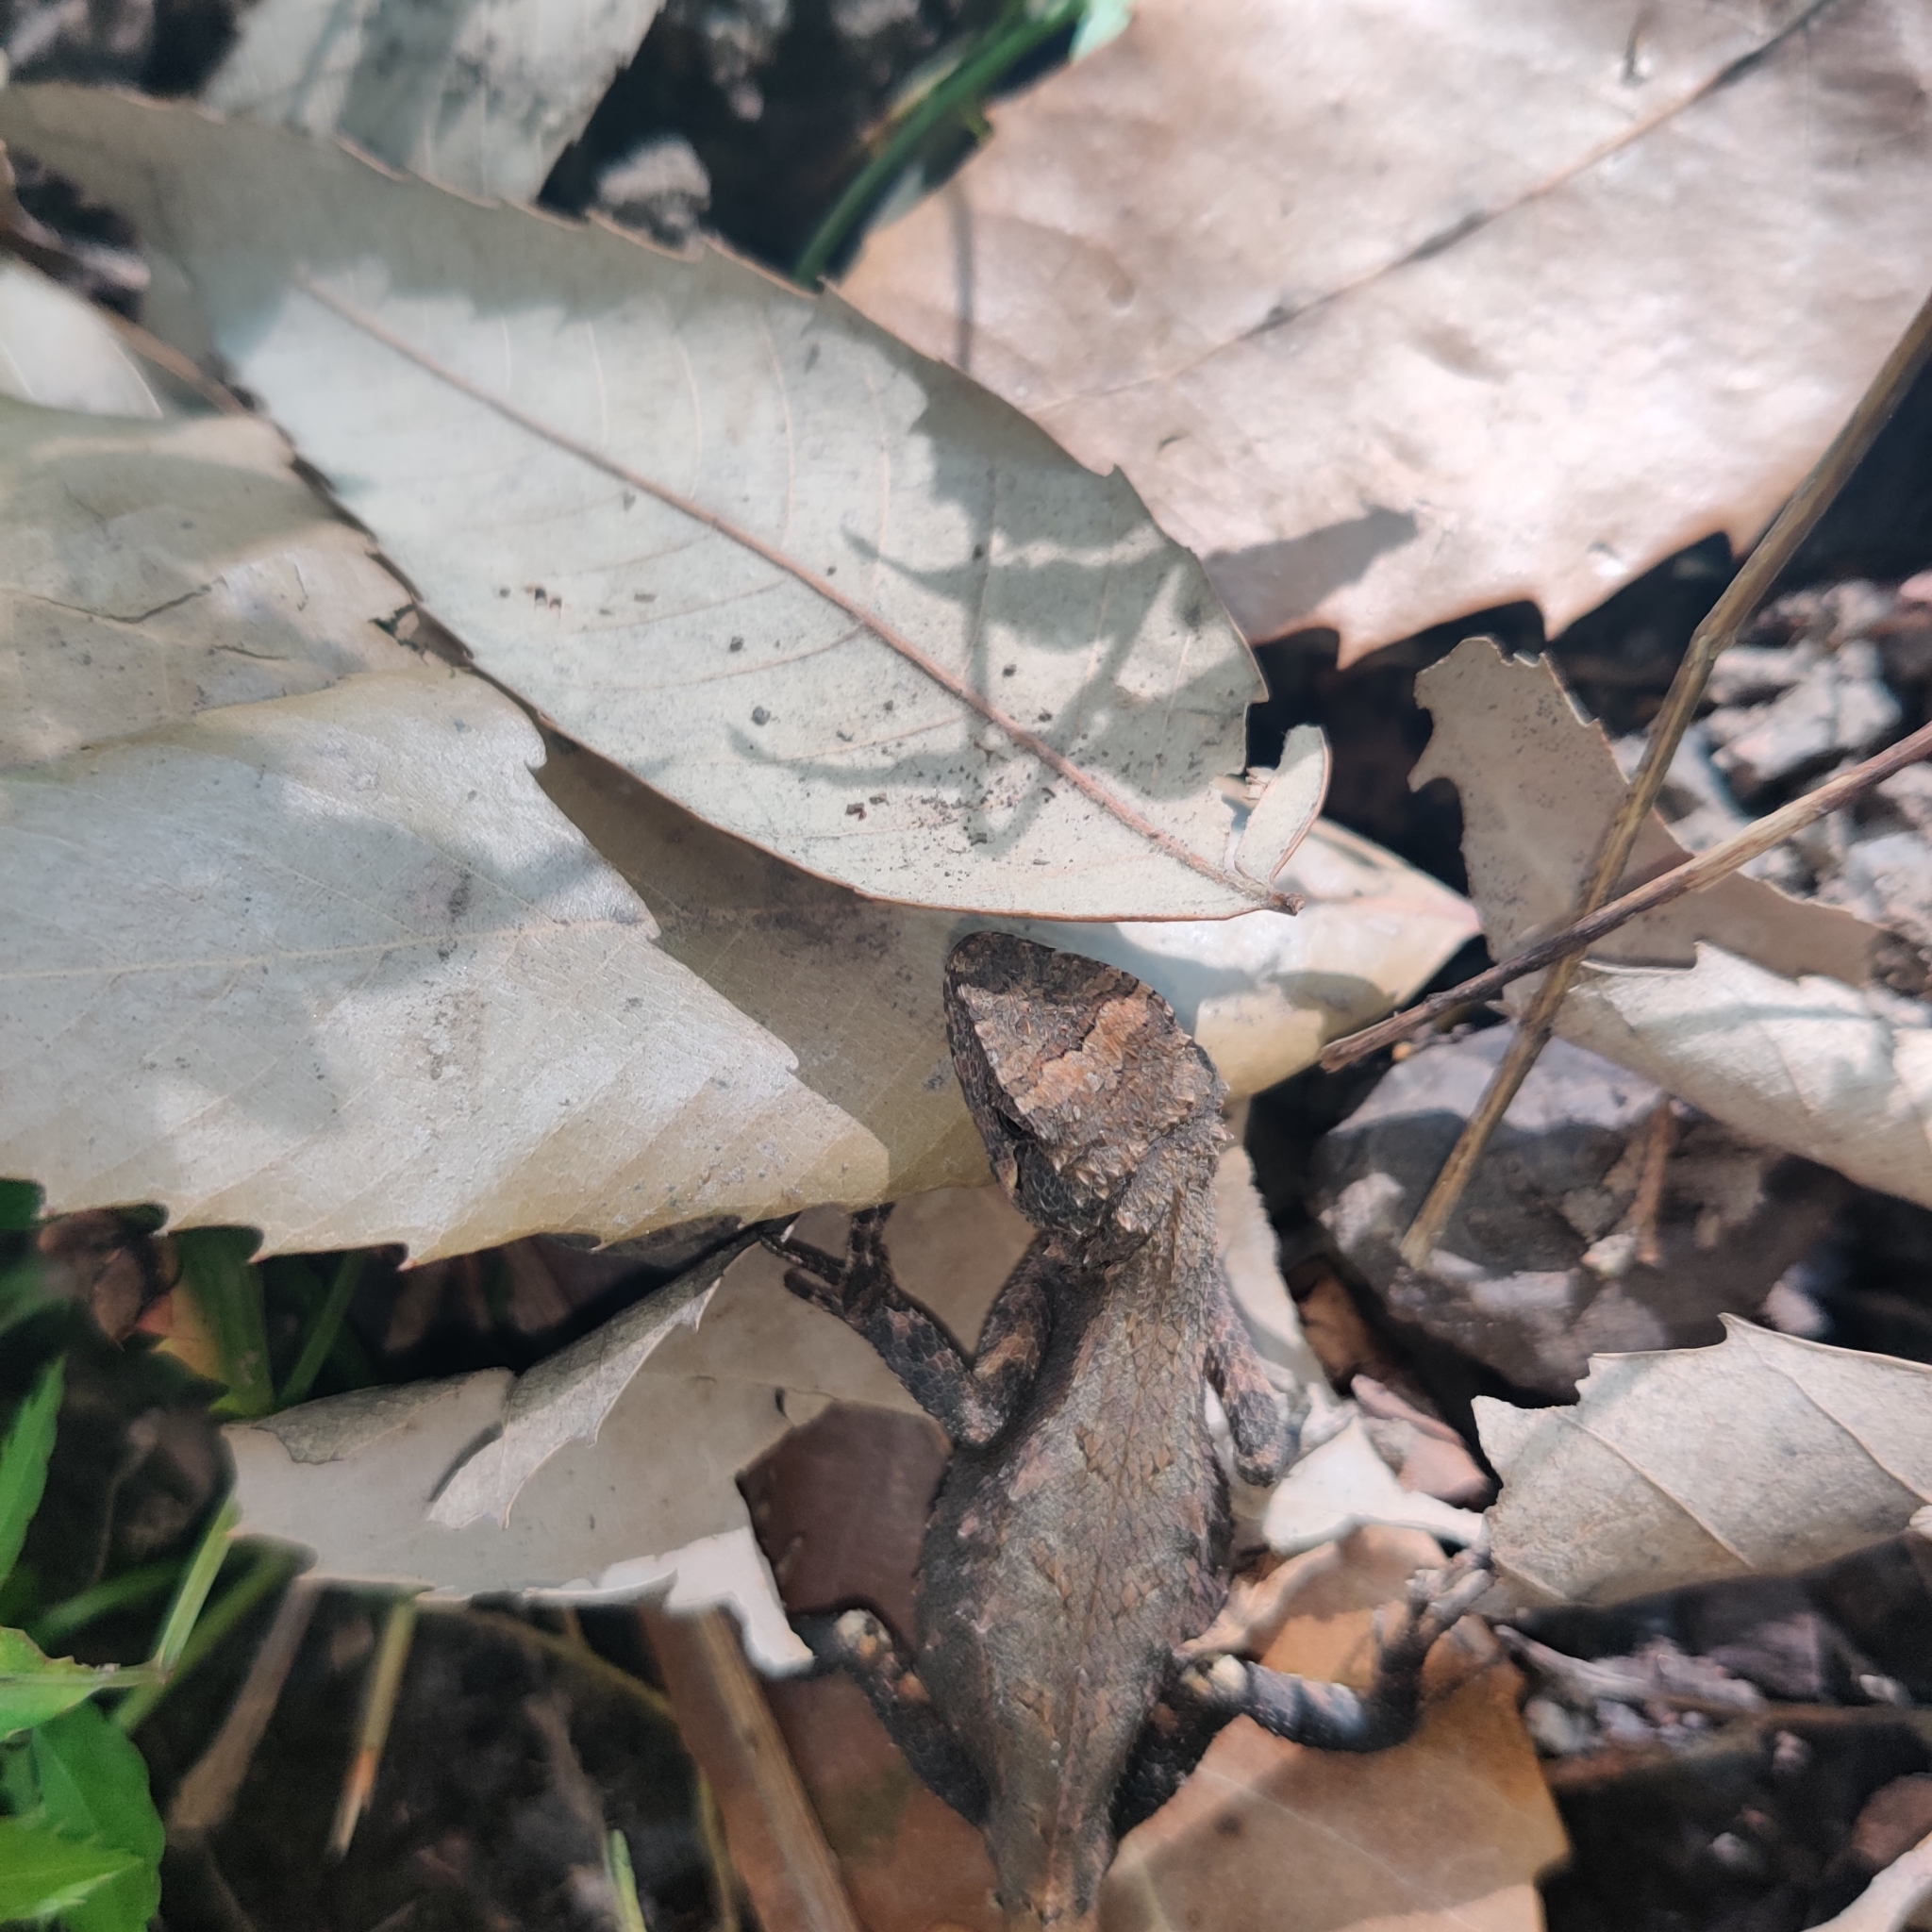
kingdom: Animalia
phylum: Chordata
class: Squamata
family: Agamidae
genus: Japalura
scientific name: Japalura major
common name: Greater forest agama
